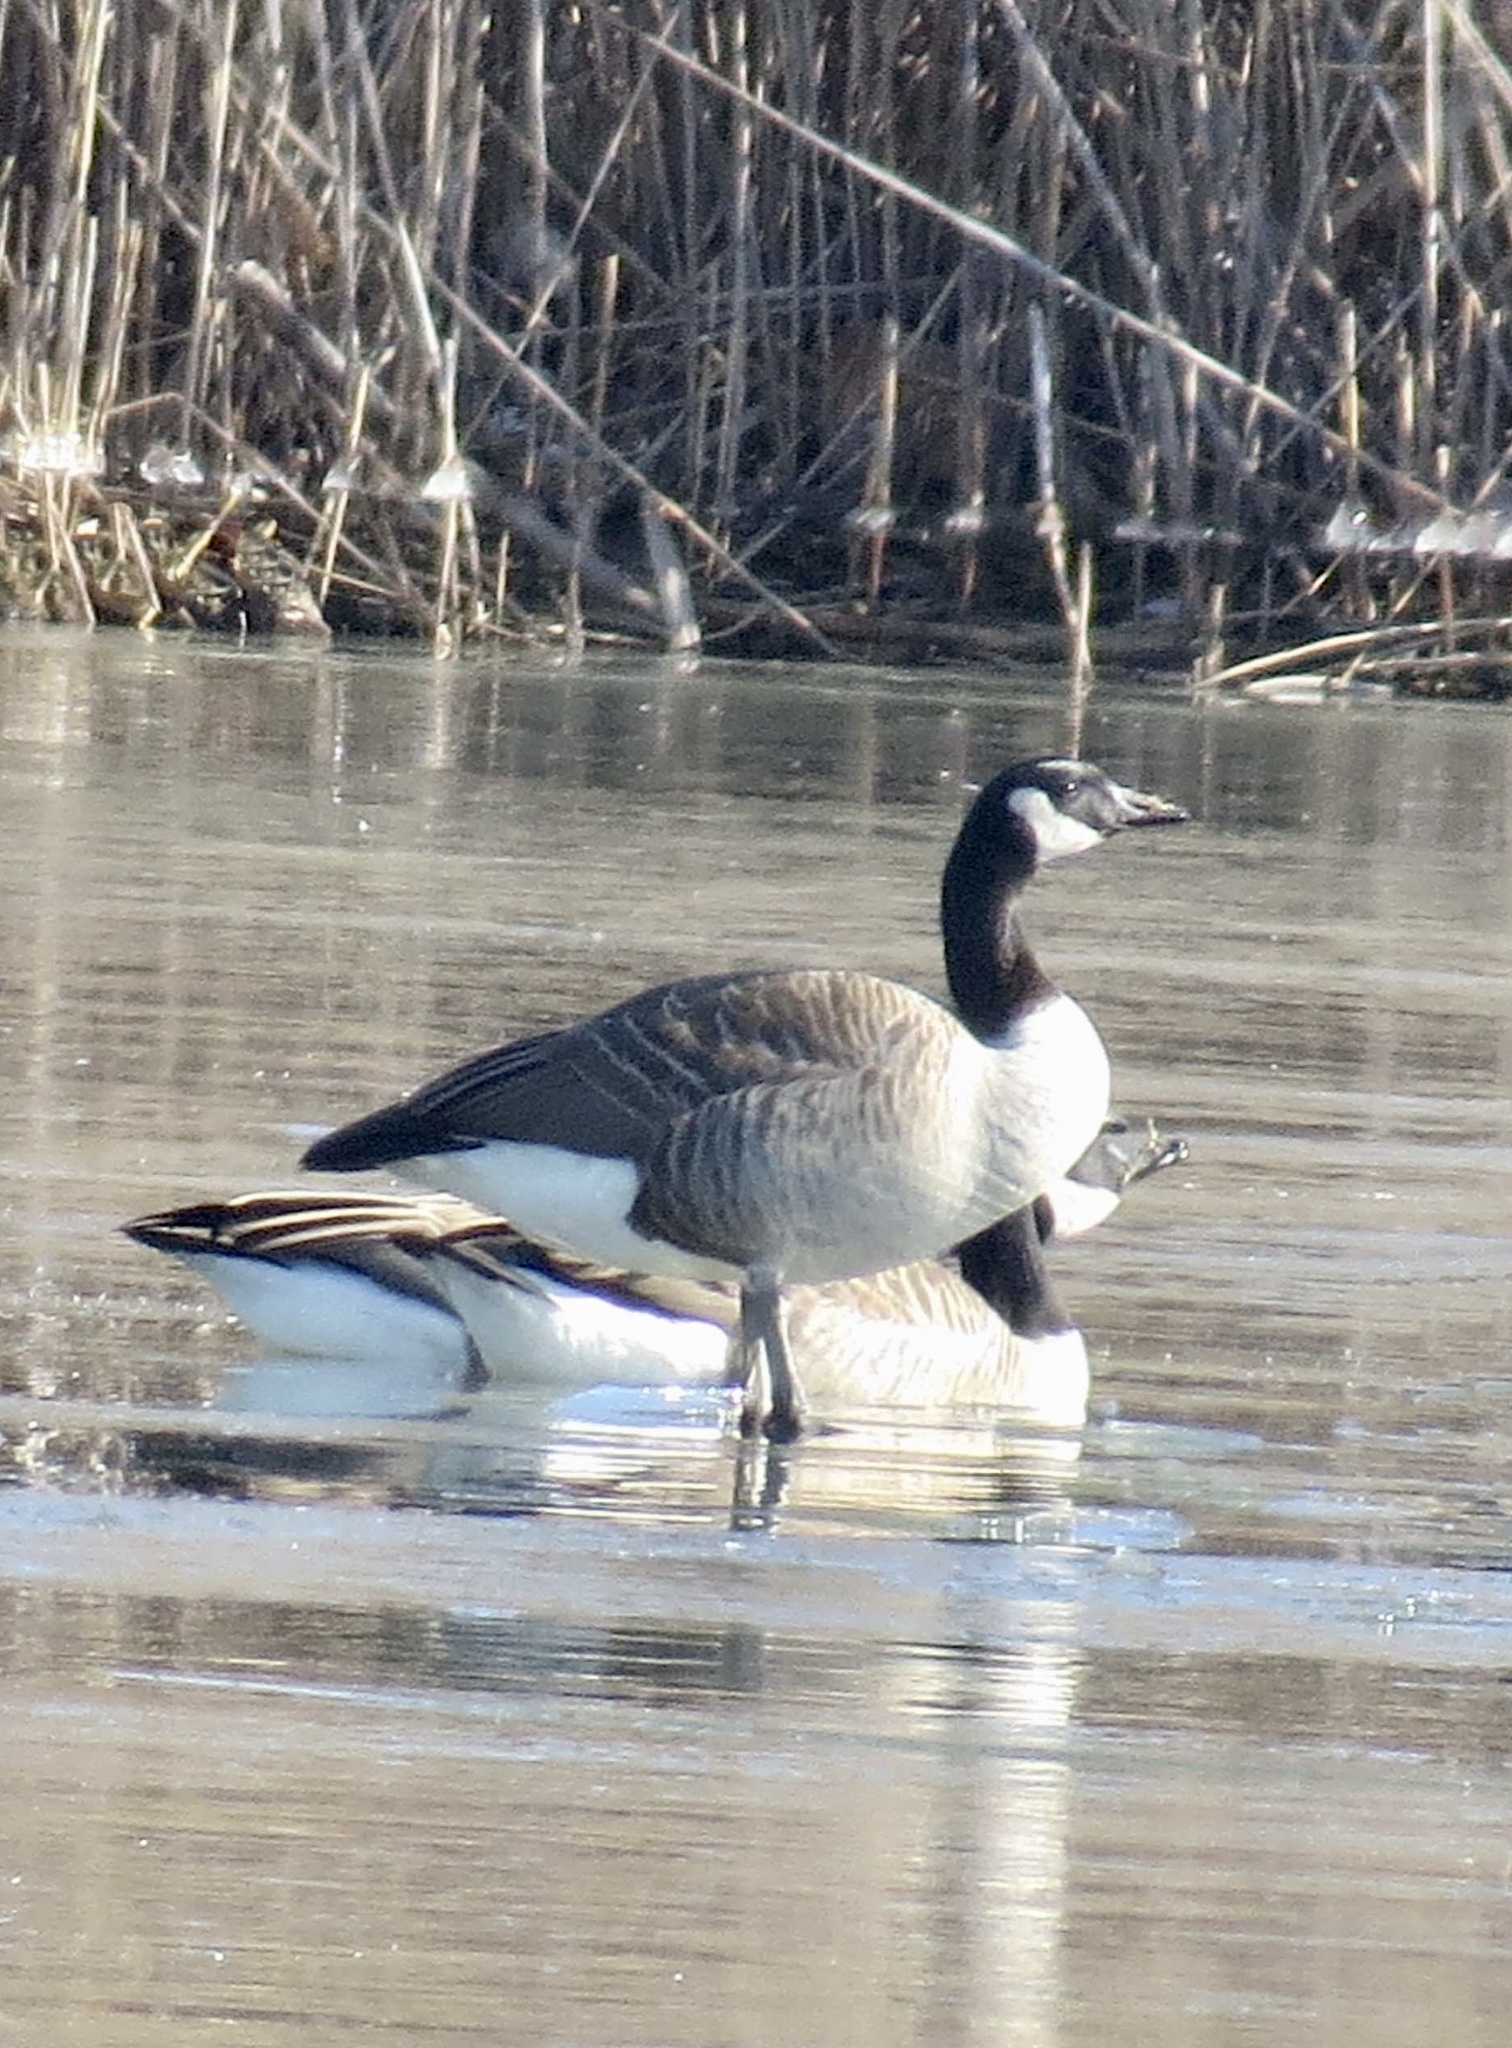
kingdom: Animalia
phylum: Chordata
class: Aves
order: Anseriformes
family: Anatidae
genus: Branta
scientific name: Branta canadensis
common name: Canada goose
